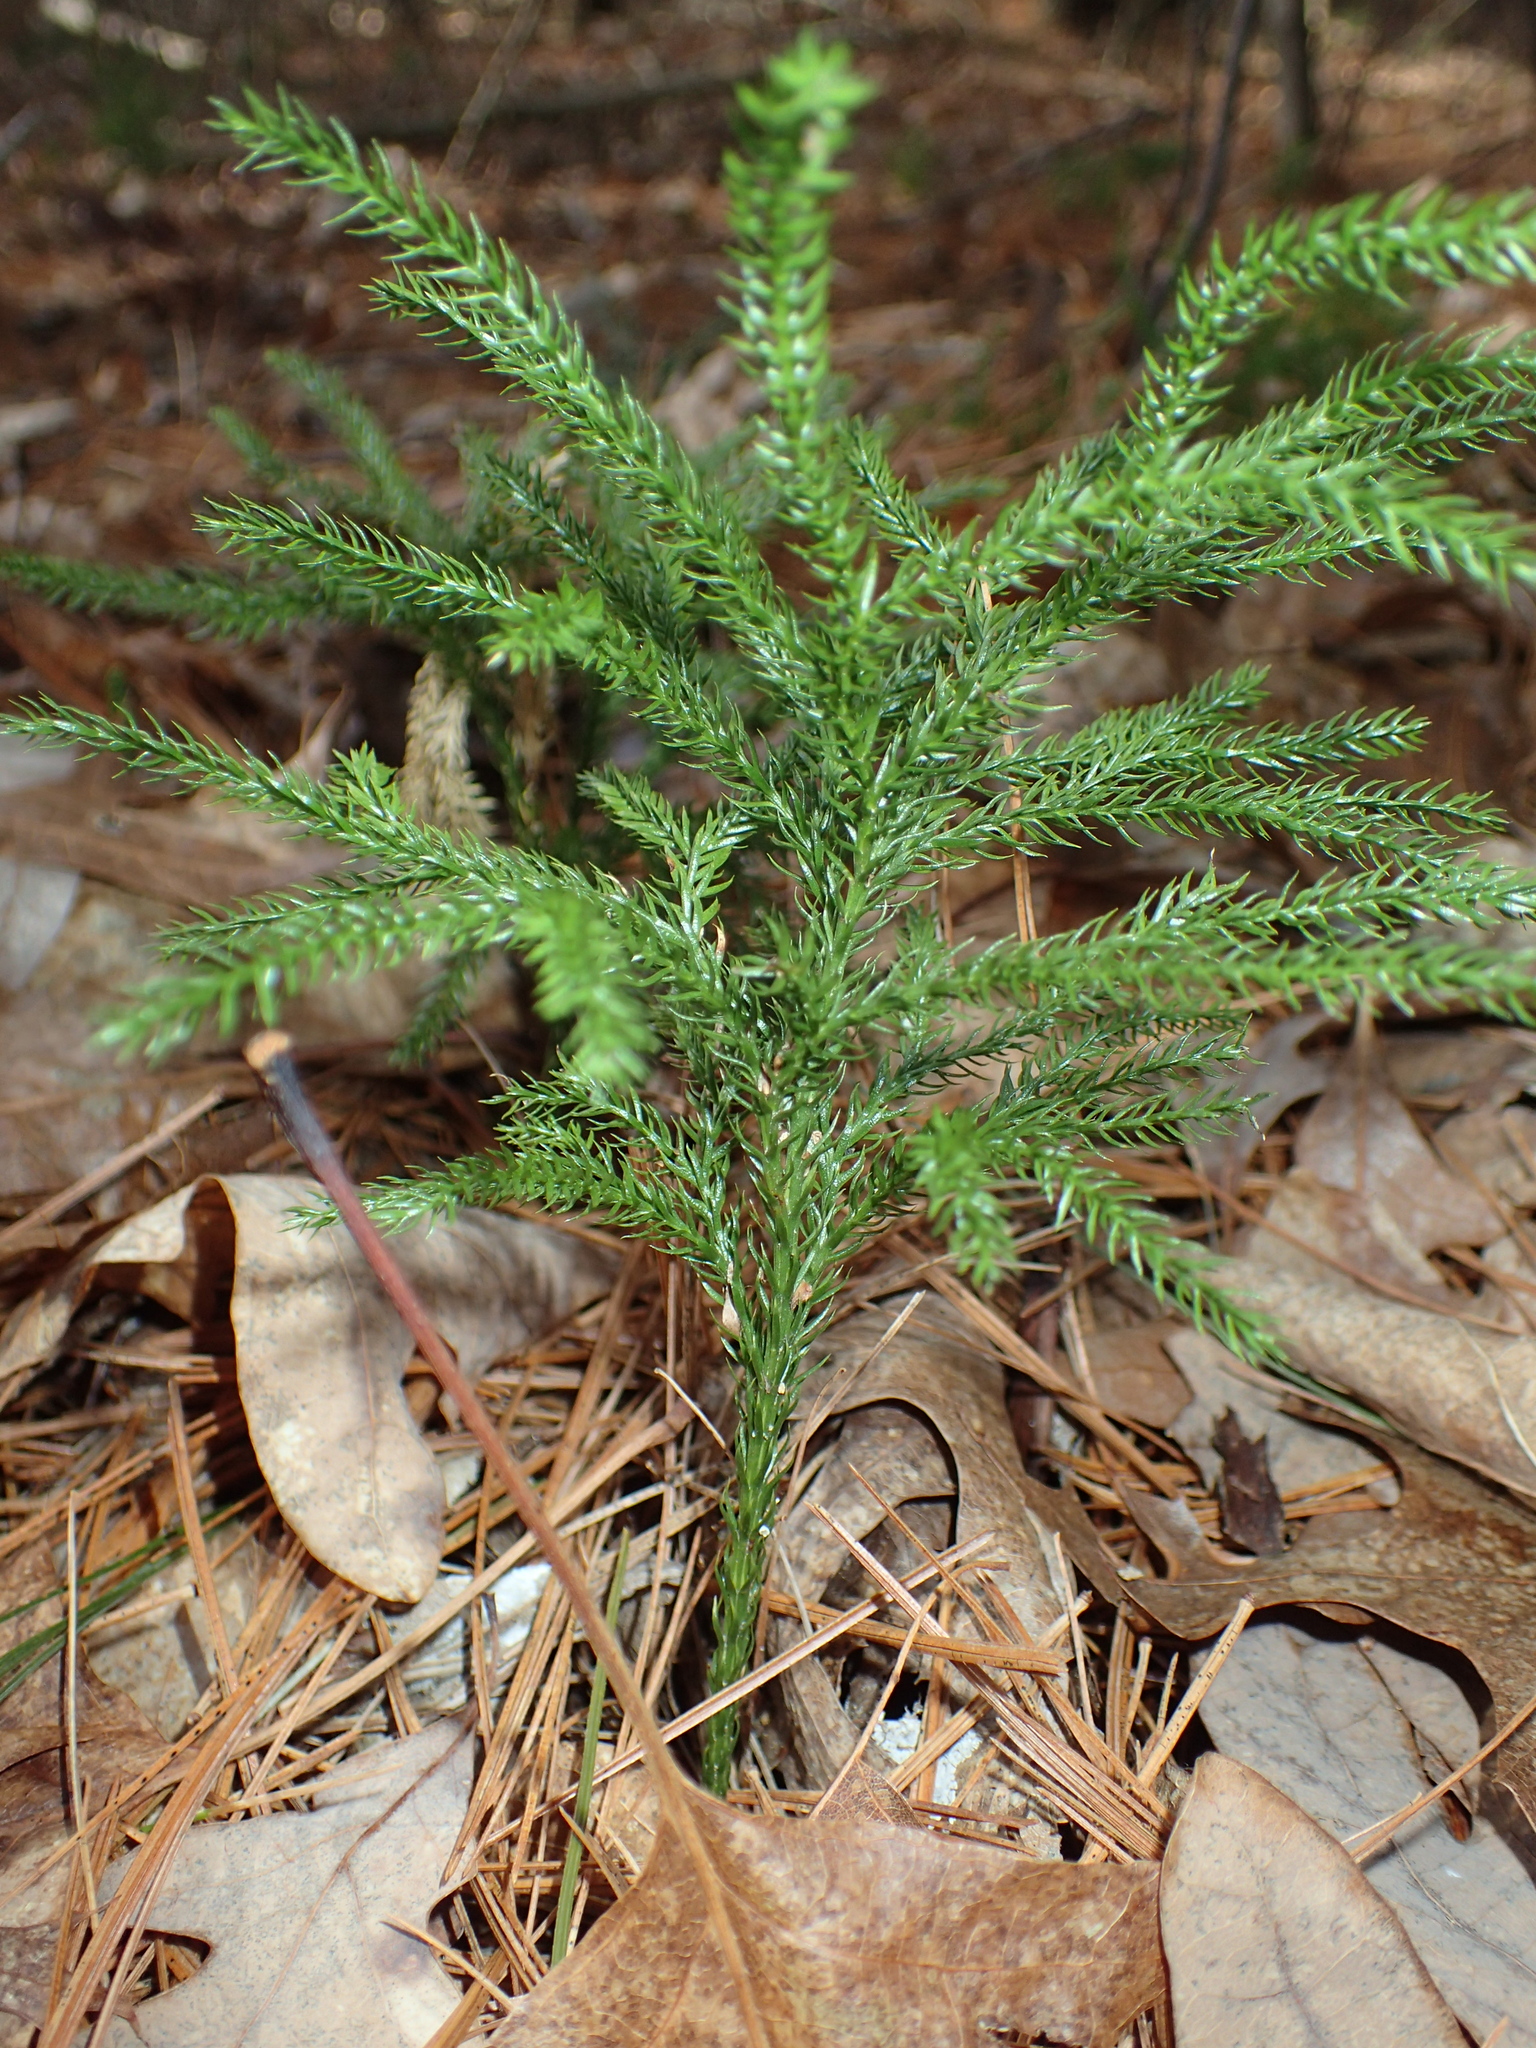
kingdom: Plantae
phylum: Tracheophyta
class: Lycopodiopsida
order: Lycopodiales
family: Lycopodiaceae
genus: Dendrolycopodium
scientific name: Dendrolycopodium hickeyi
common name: Hickey's clubmoss
